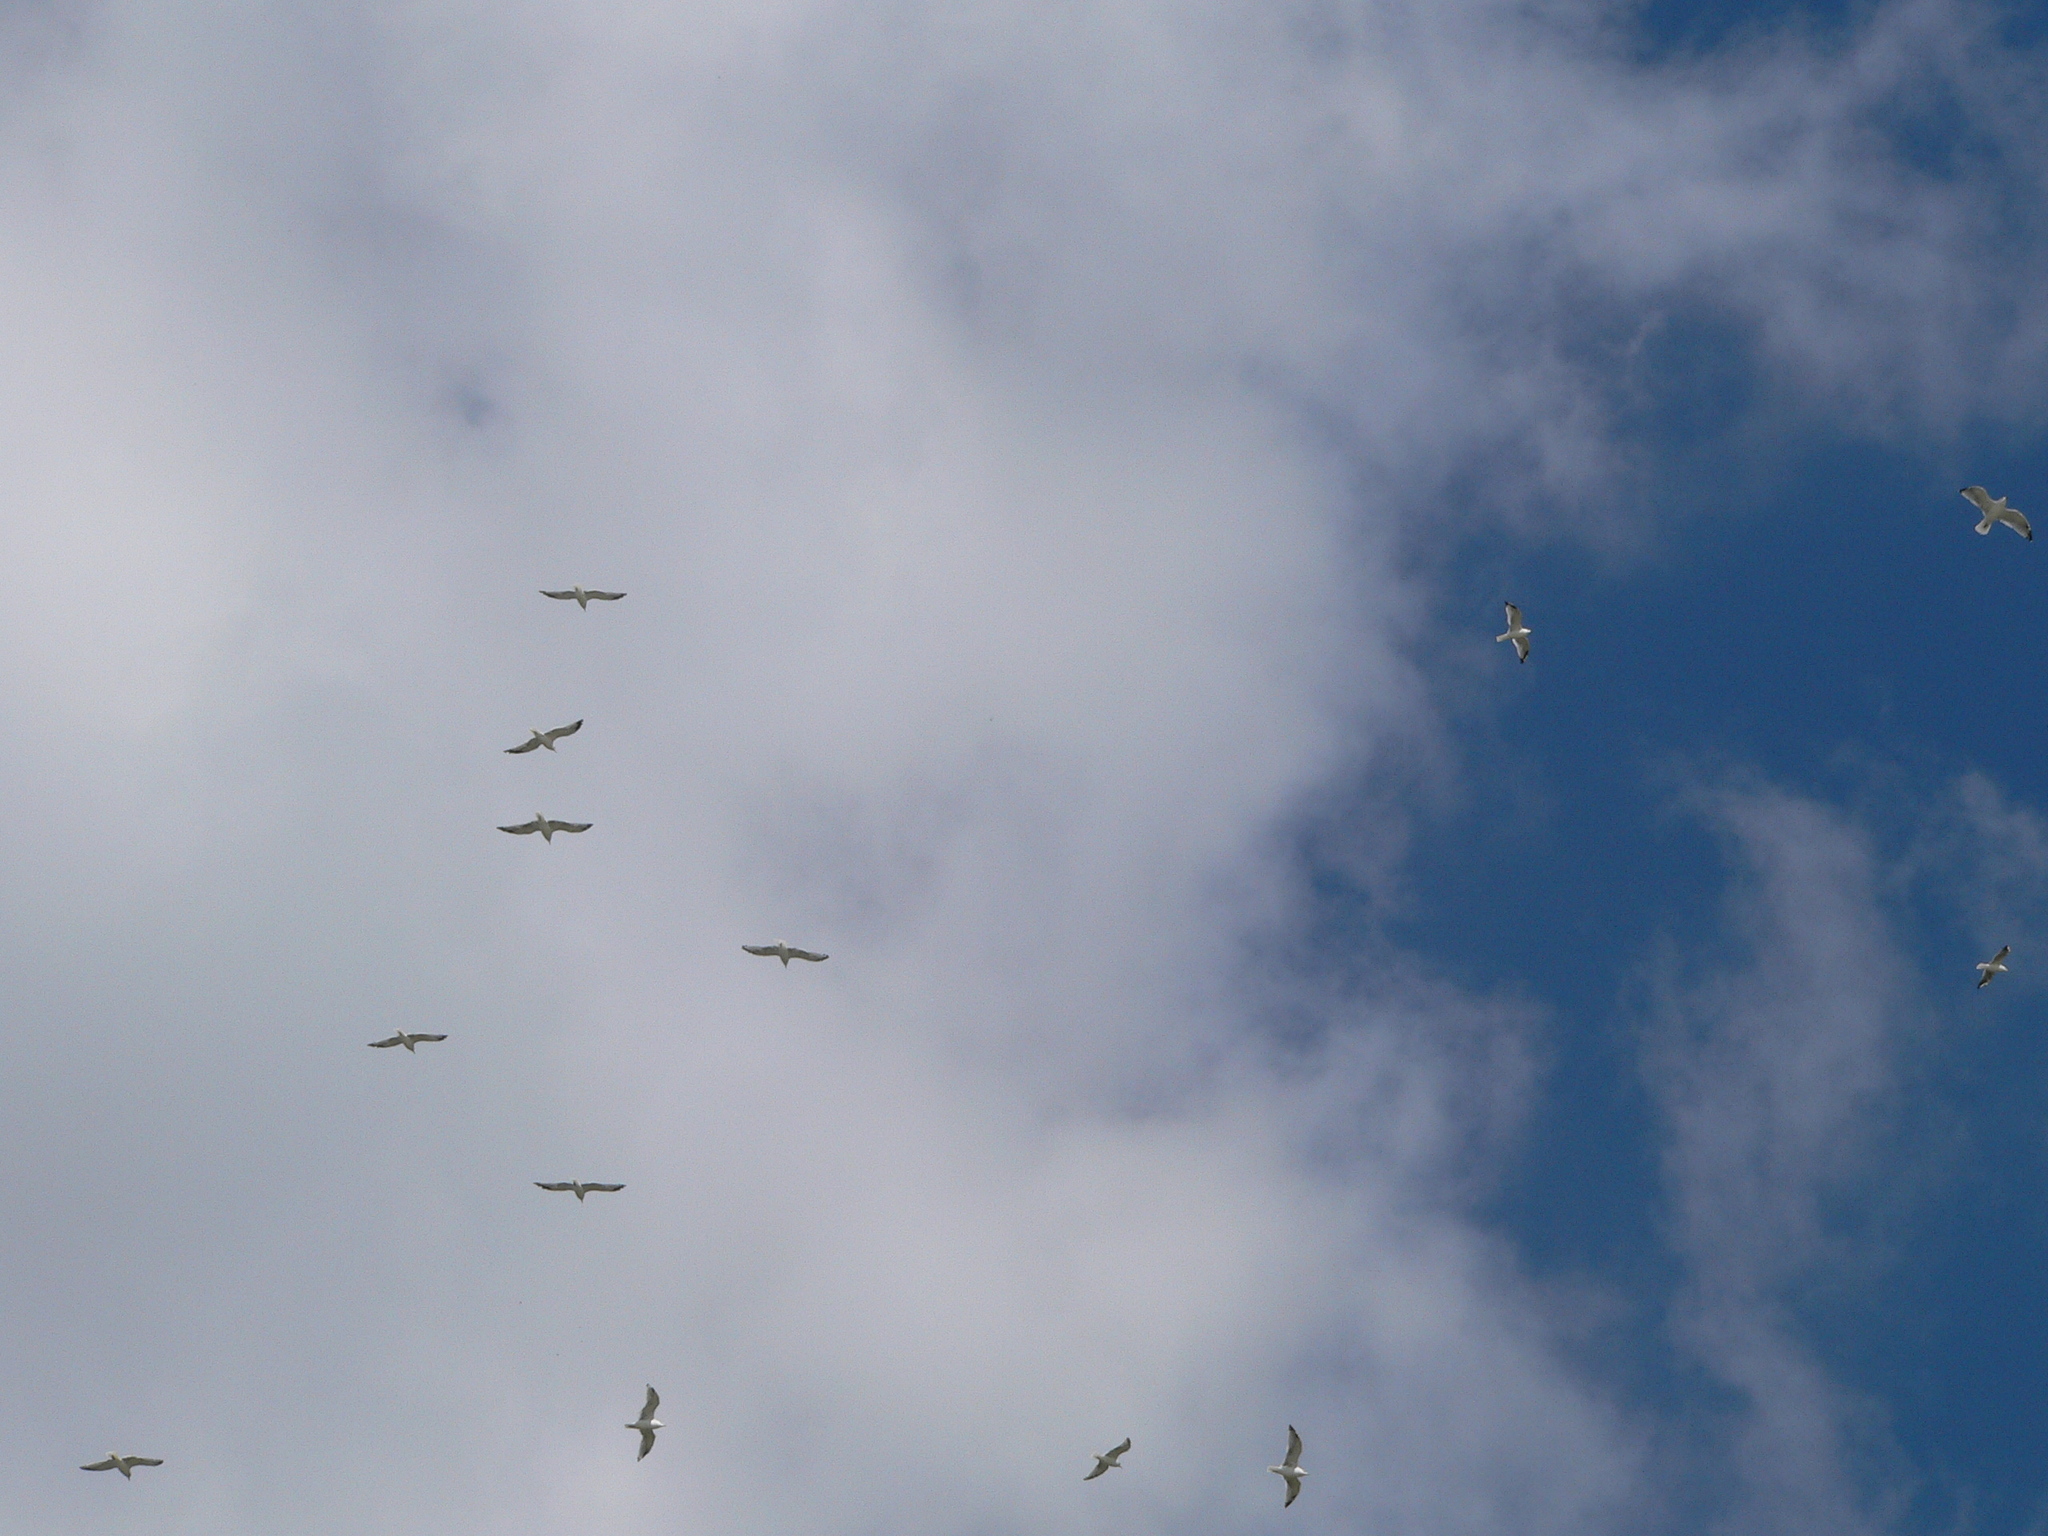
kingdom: Animalia
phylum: Chordata
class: Aves
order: Charadriiformes
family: Laridae
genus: Larus
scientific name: Larus canus
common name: Mew gull
